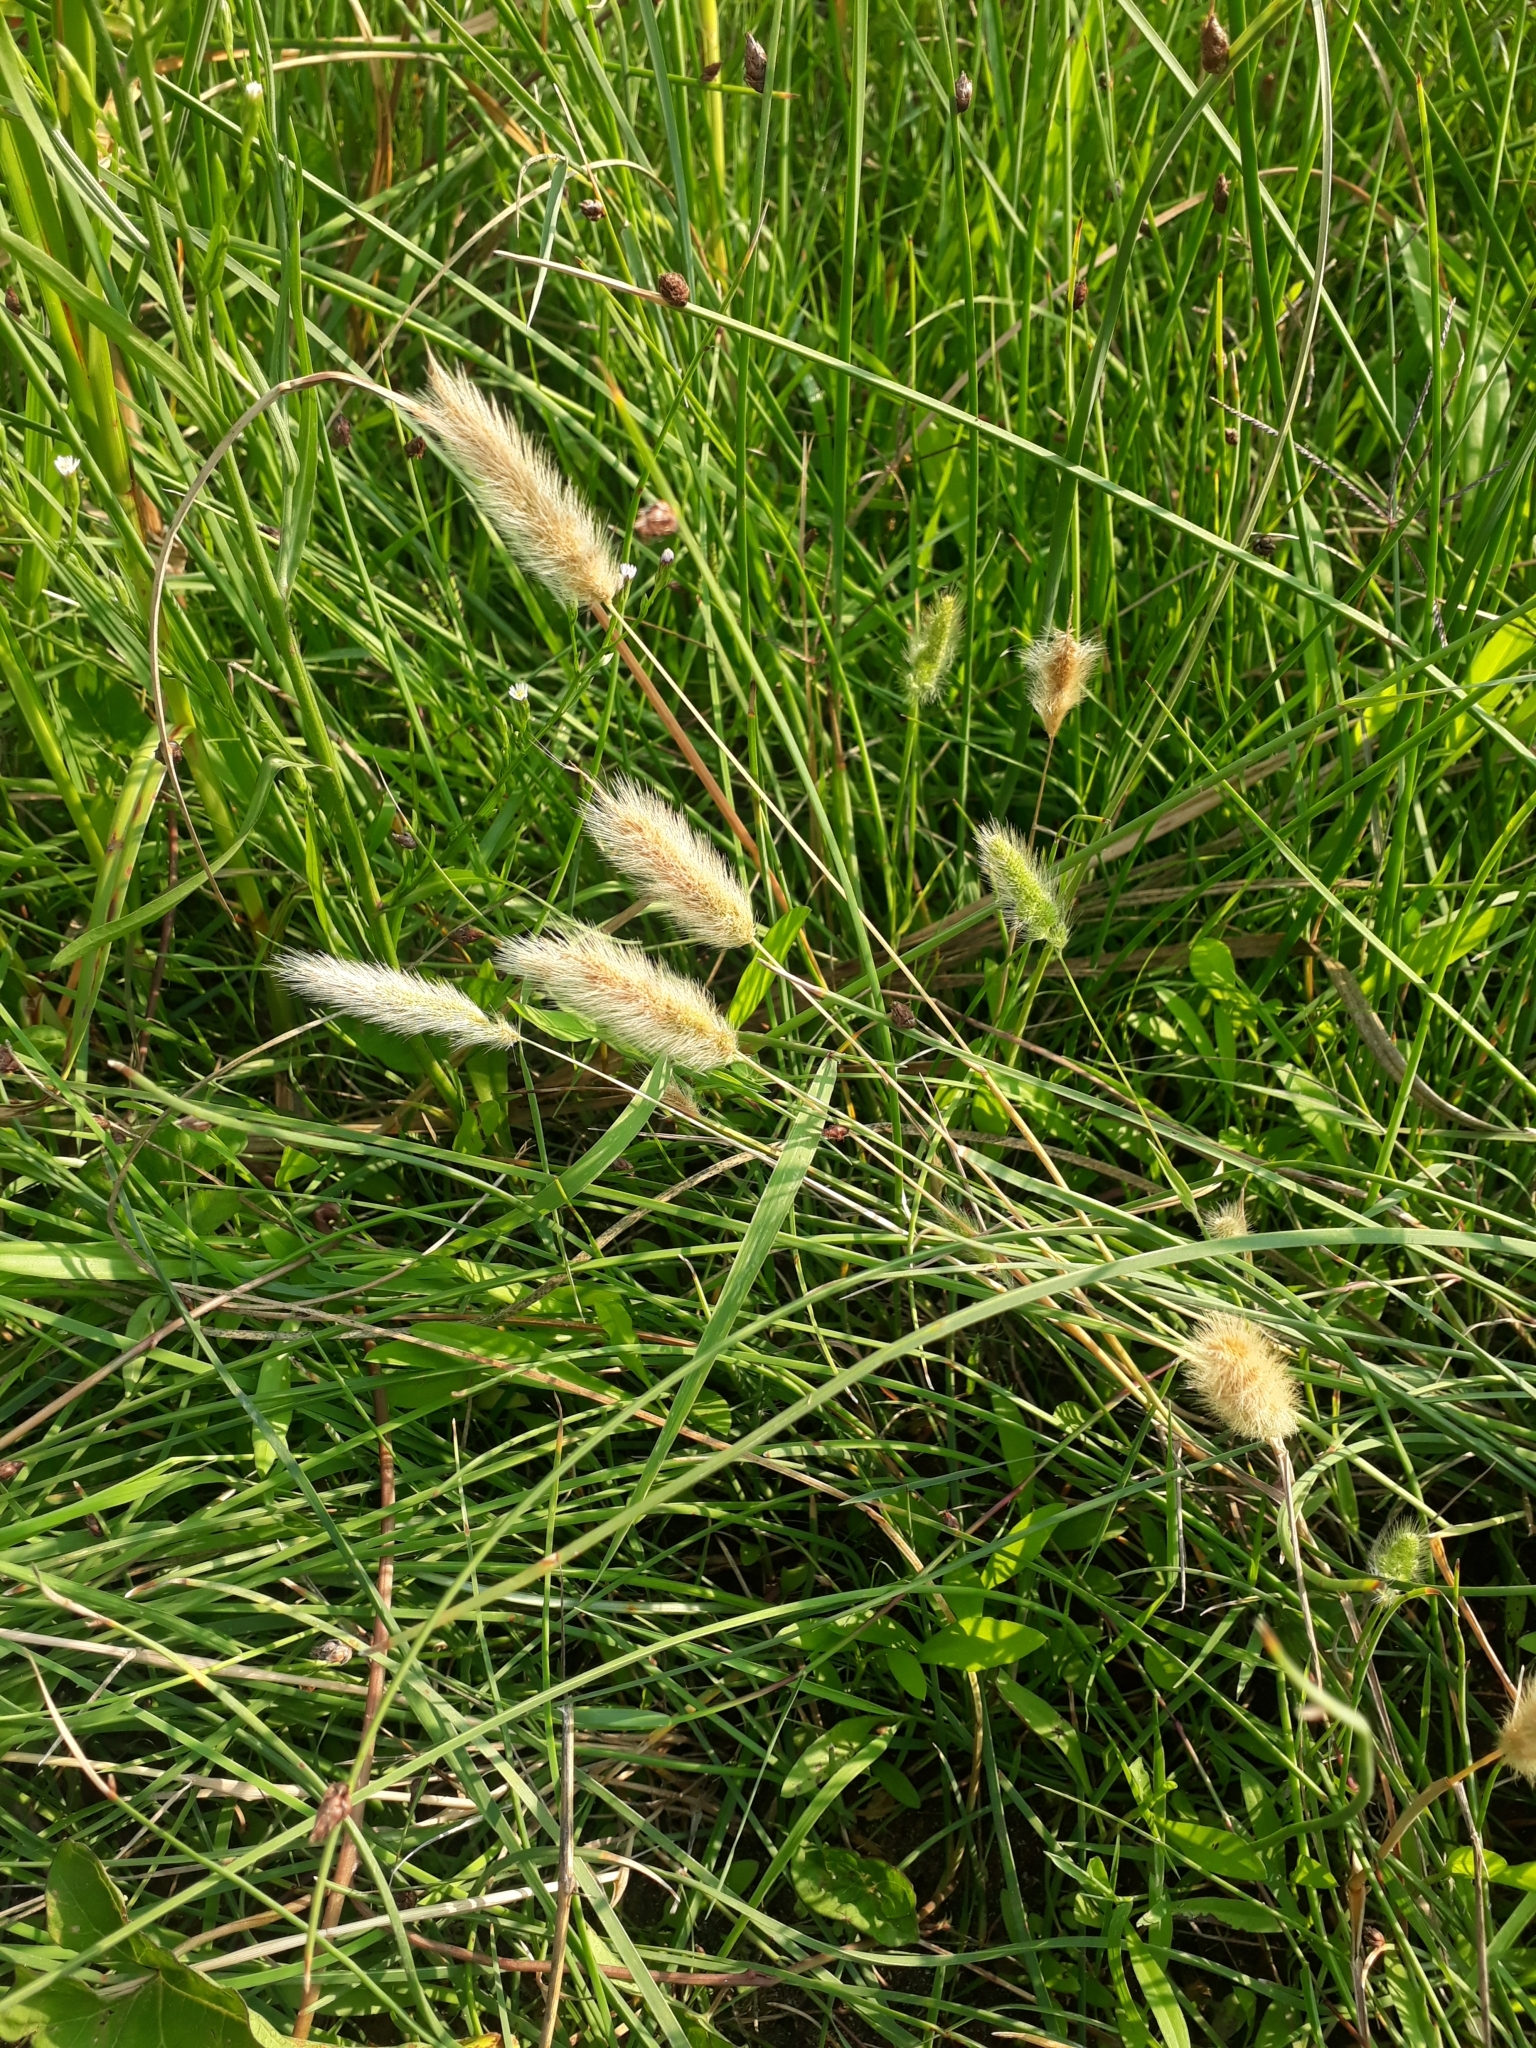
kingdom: Plantae
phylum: Tracheophyta
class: Liliopsida
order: Poales
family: Poaceae
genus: Polypogon
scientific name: Polypogon monspeliensis
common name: Annual rabbitsfoot grass
